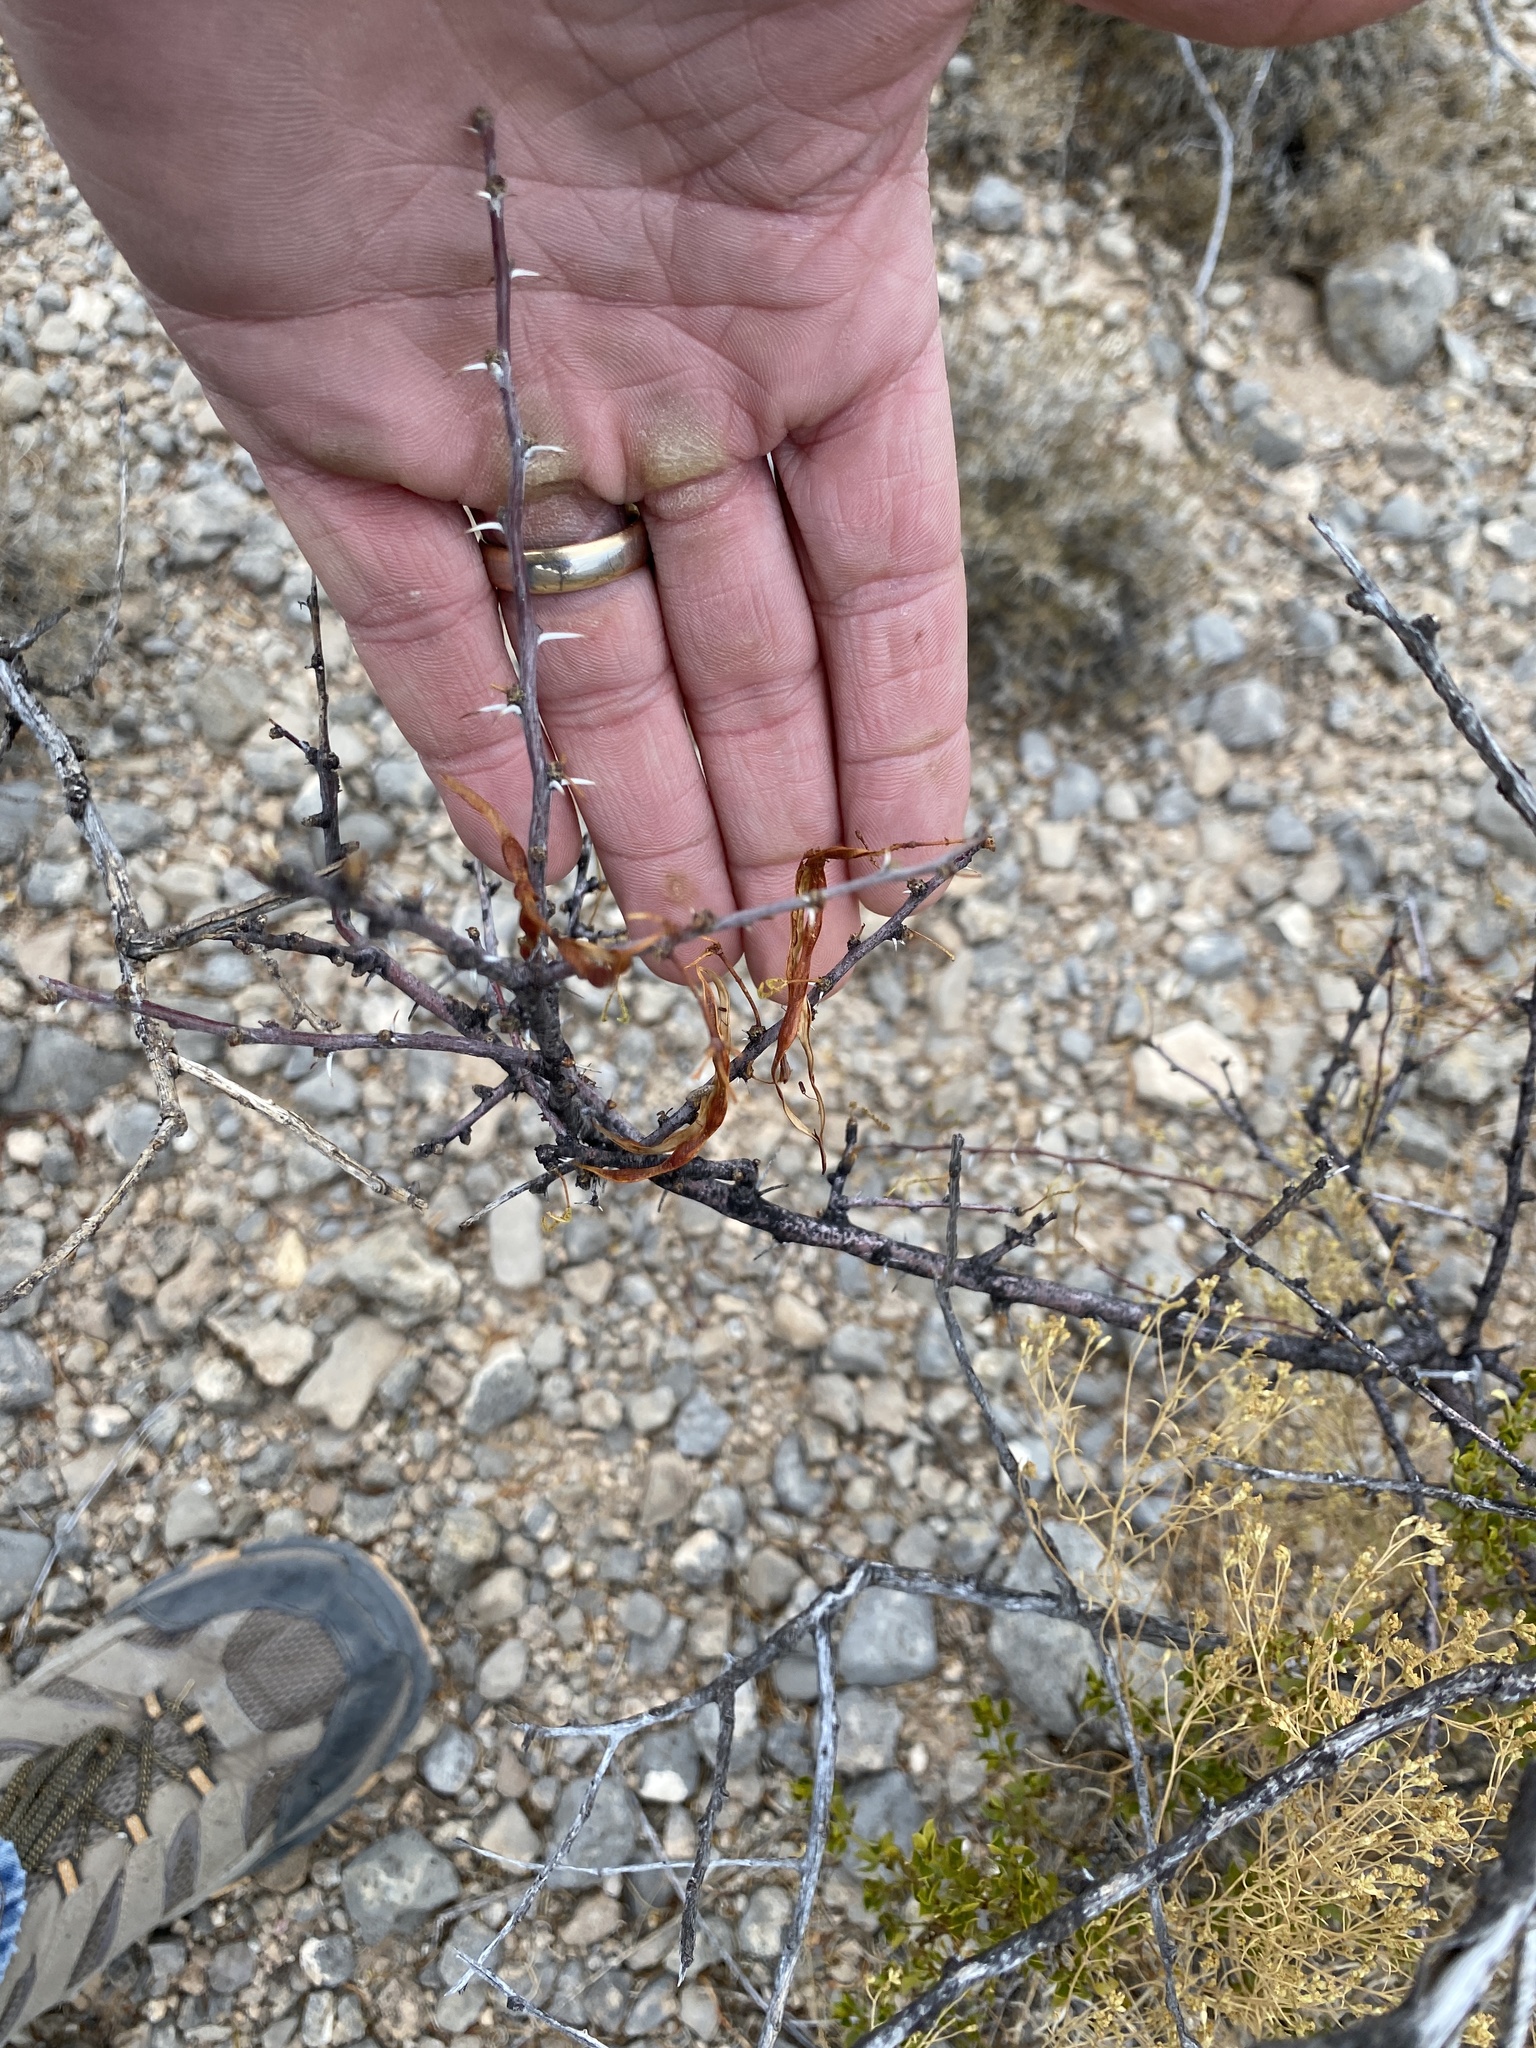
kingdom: Plantae
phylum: Tracheophyta
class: Magnoliopsida
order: Fabales
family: Fabaceae
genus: Vachellia
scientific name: Vachellia constricta
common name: Mescat acacia
